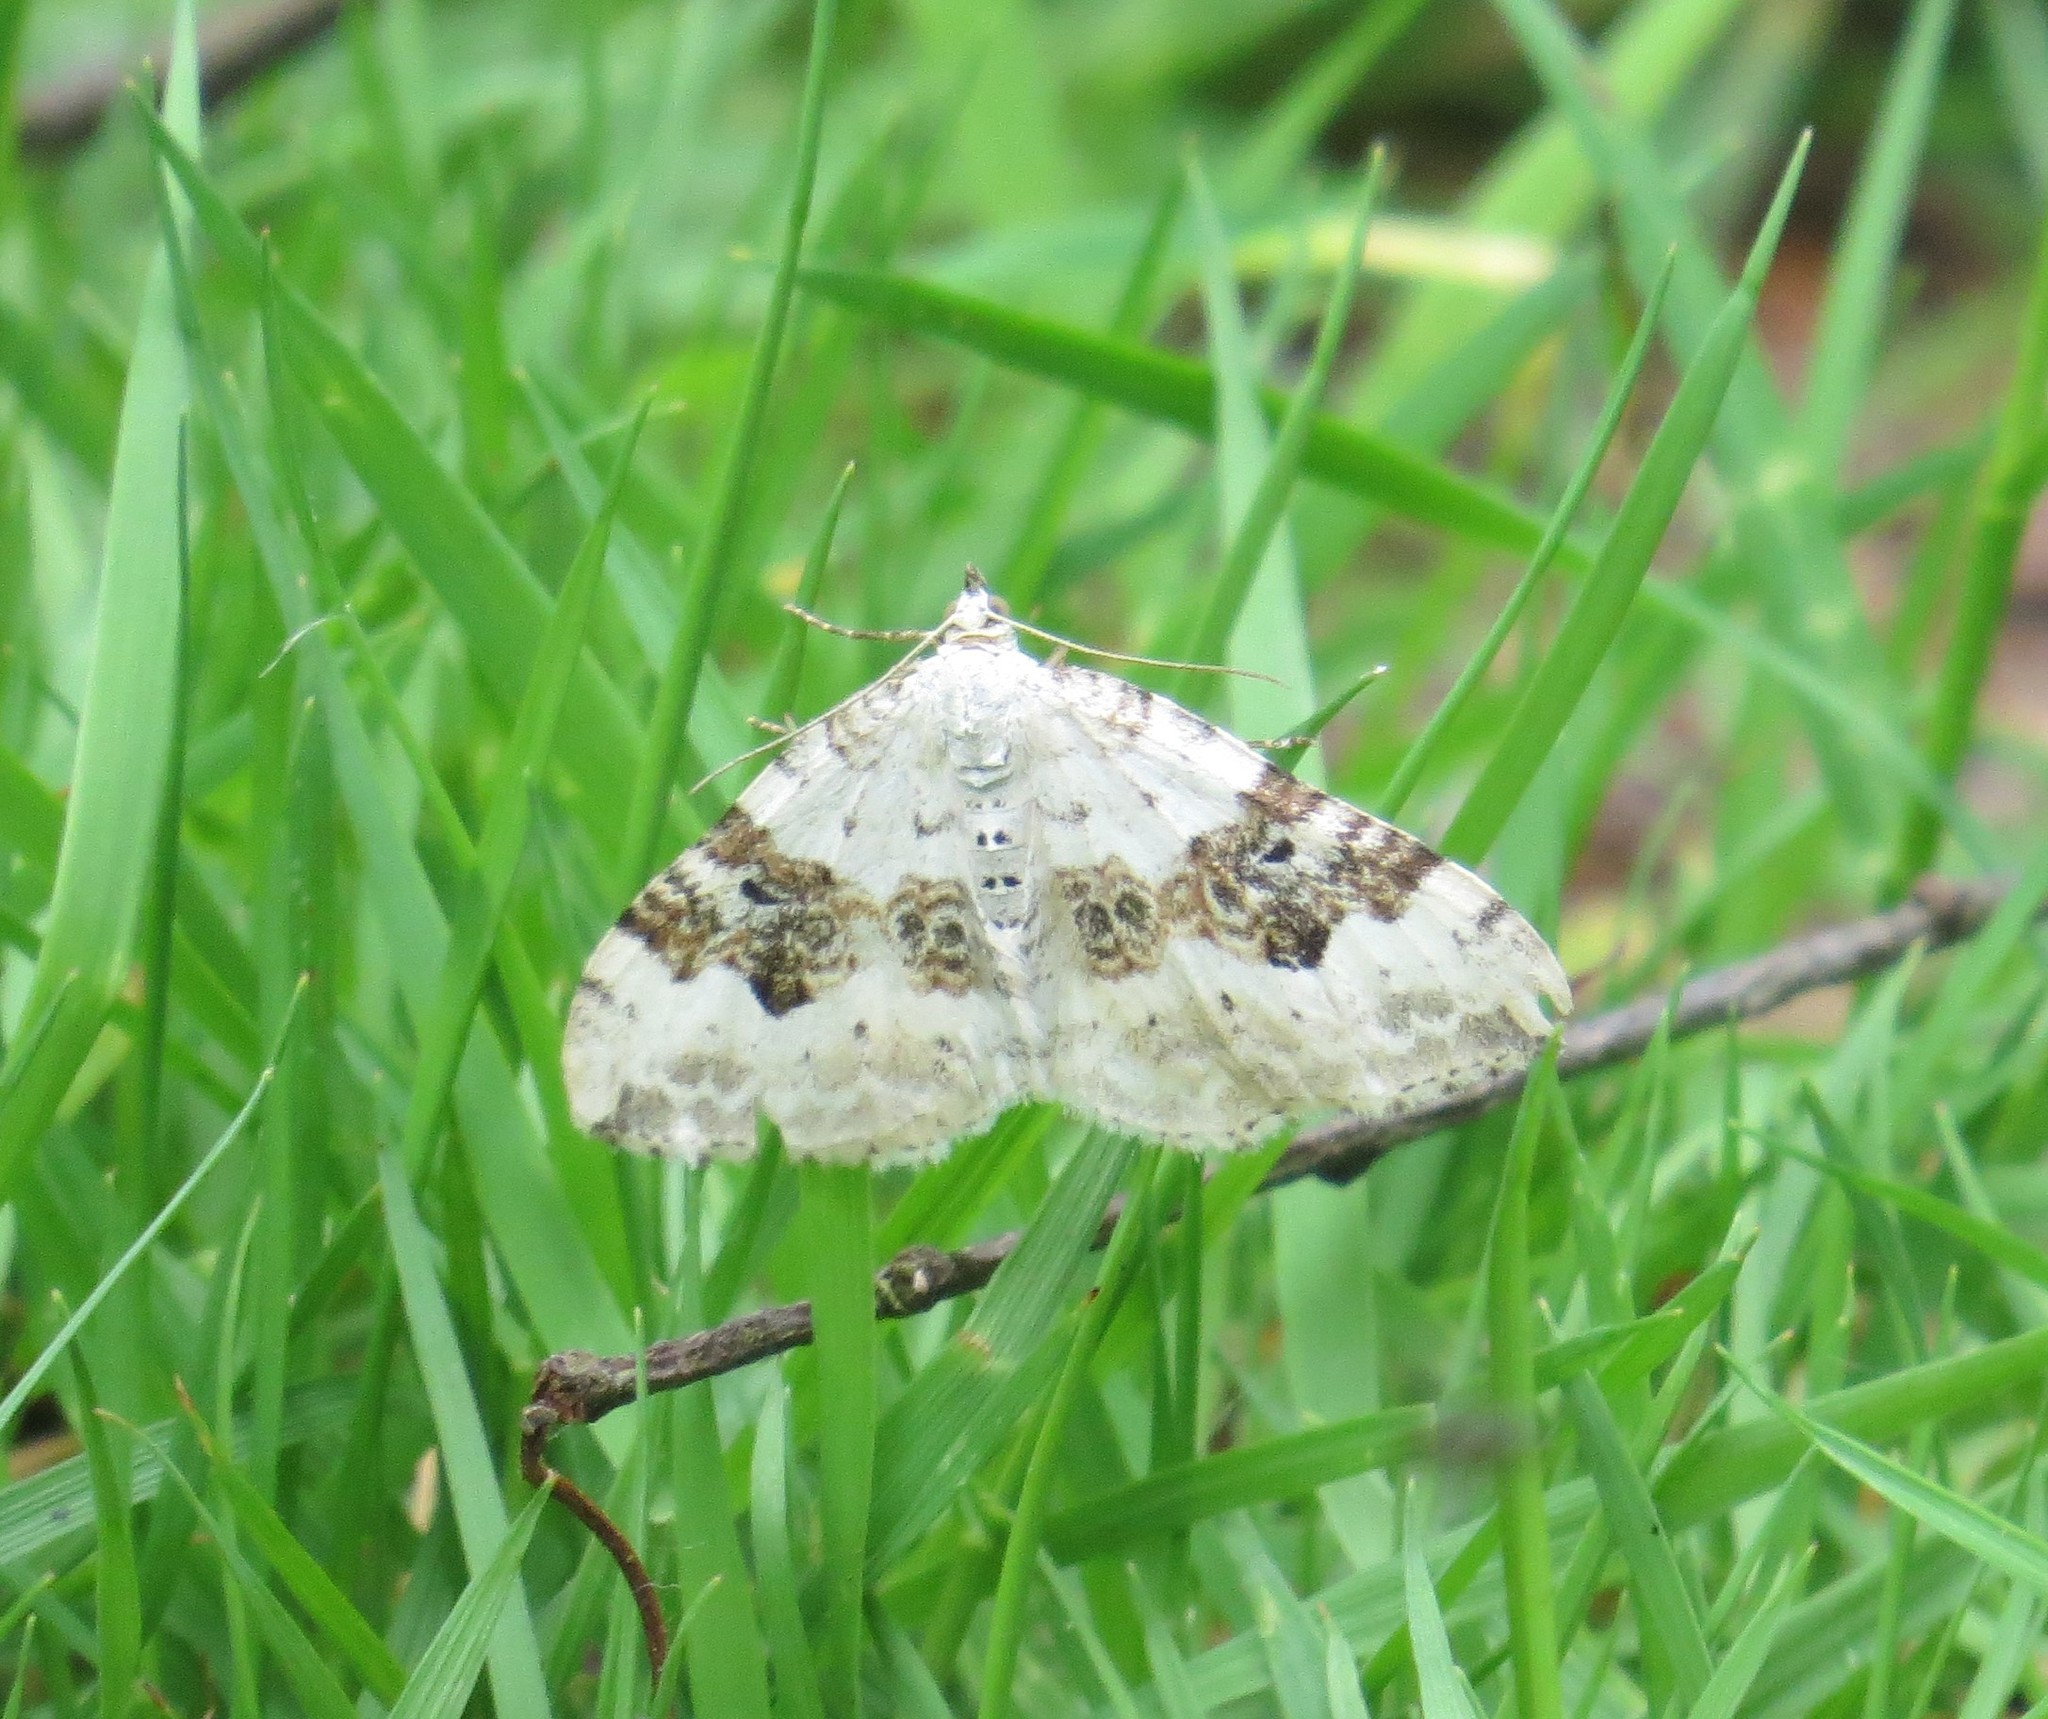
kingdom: Animalia
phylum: Arthropoda
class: Insecta
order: Lepidoptera
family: Geometridae
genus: Xanthorhoe
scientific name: Xanthorhoe montanata
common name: Silver-ground carpet
